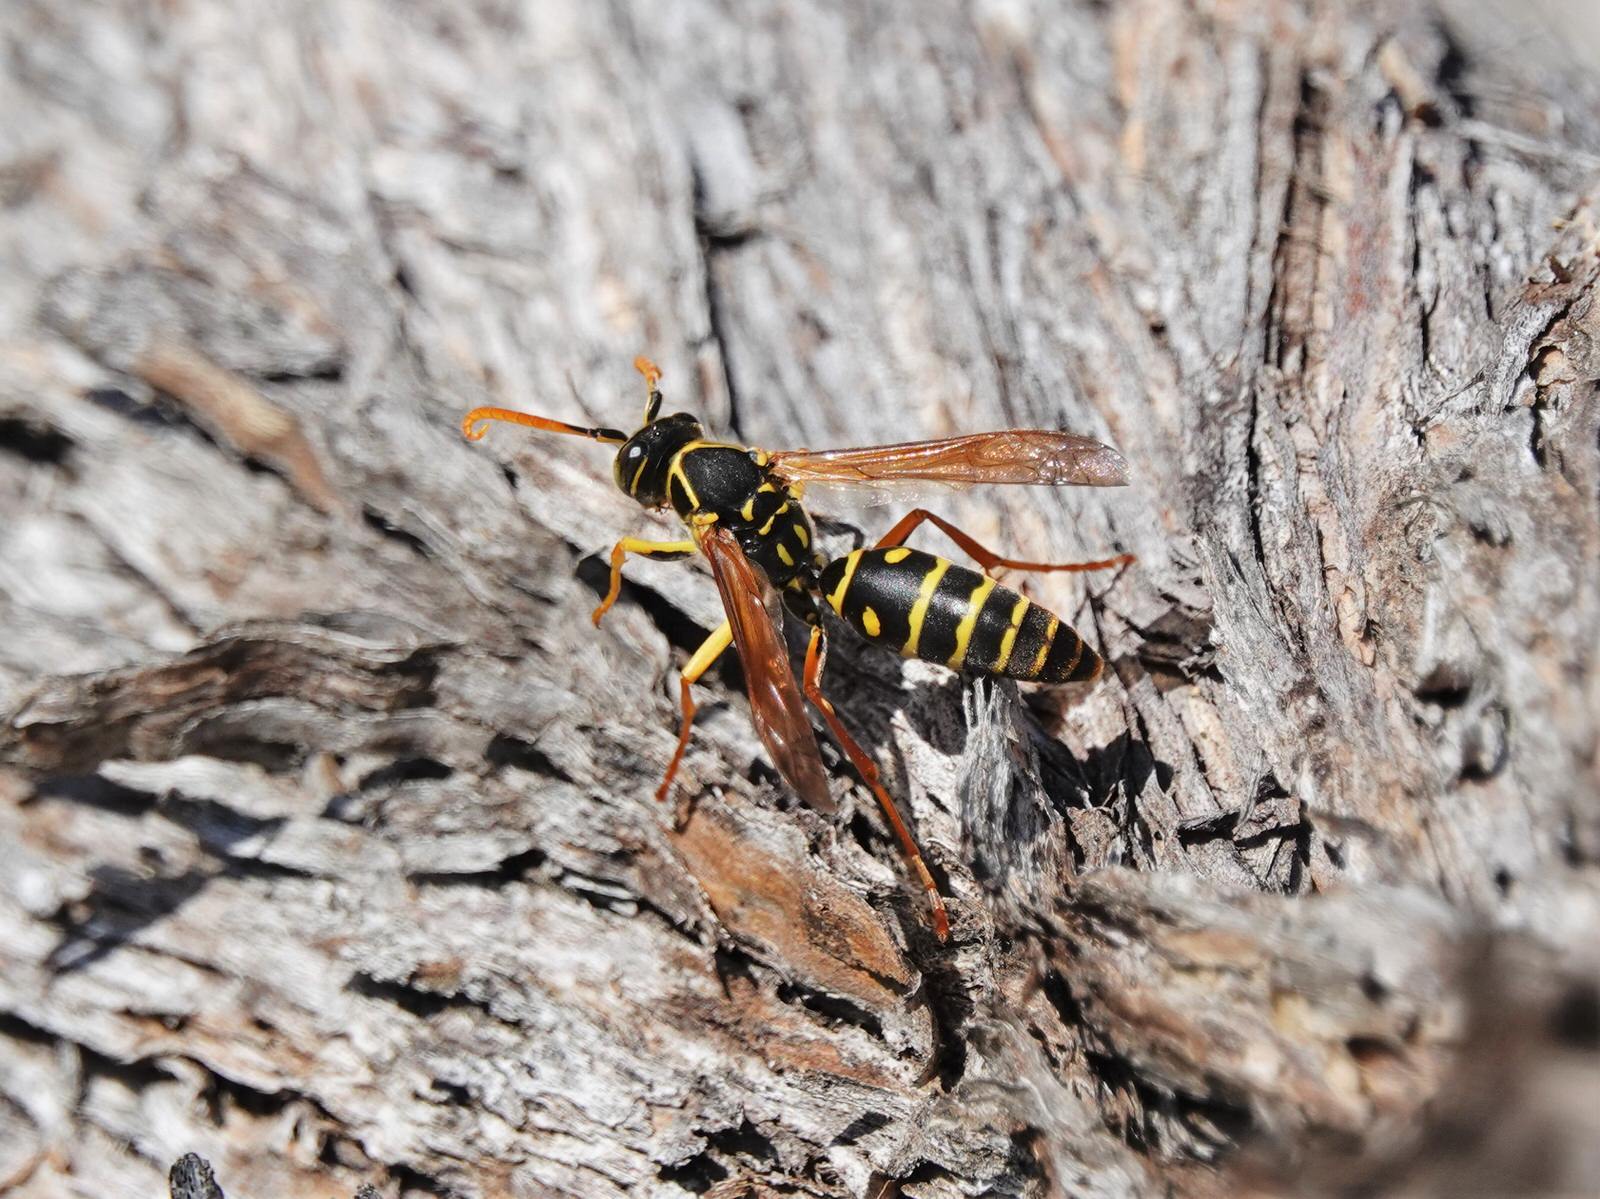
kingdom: Animalia
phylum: Arthropoda
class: Insecta
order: Hymenoptera
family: Eumenidae
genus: Polistes
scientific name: Polistes chinensis
